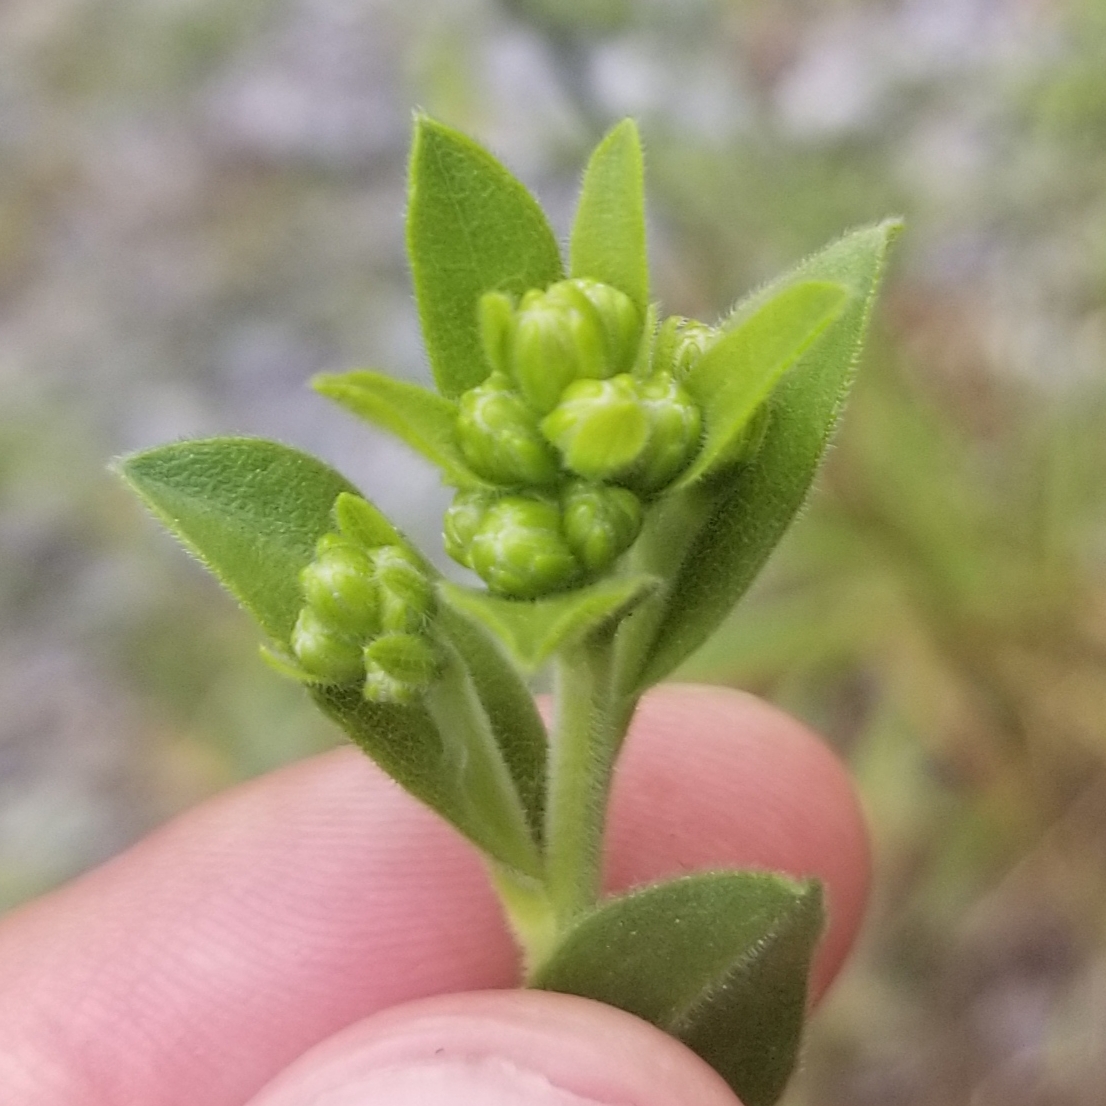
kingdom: Plantae
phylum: Tracheophyta
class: Magnoliopsida
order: Asterales
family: Asteraceae
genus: Solidago
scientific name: Solidago rigida
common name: Rigid goldenrod
